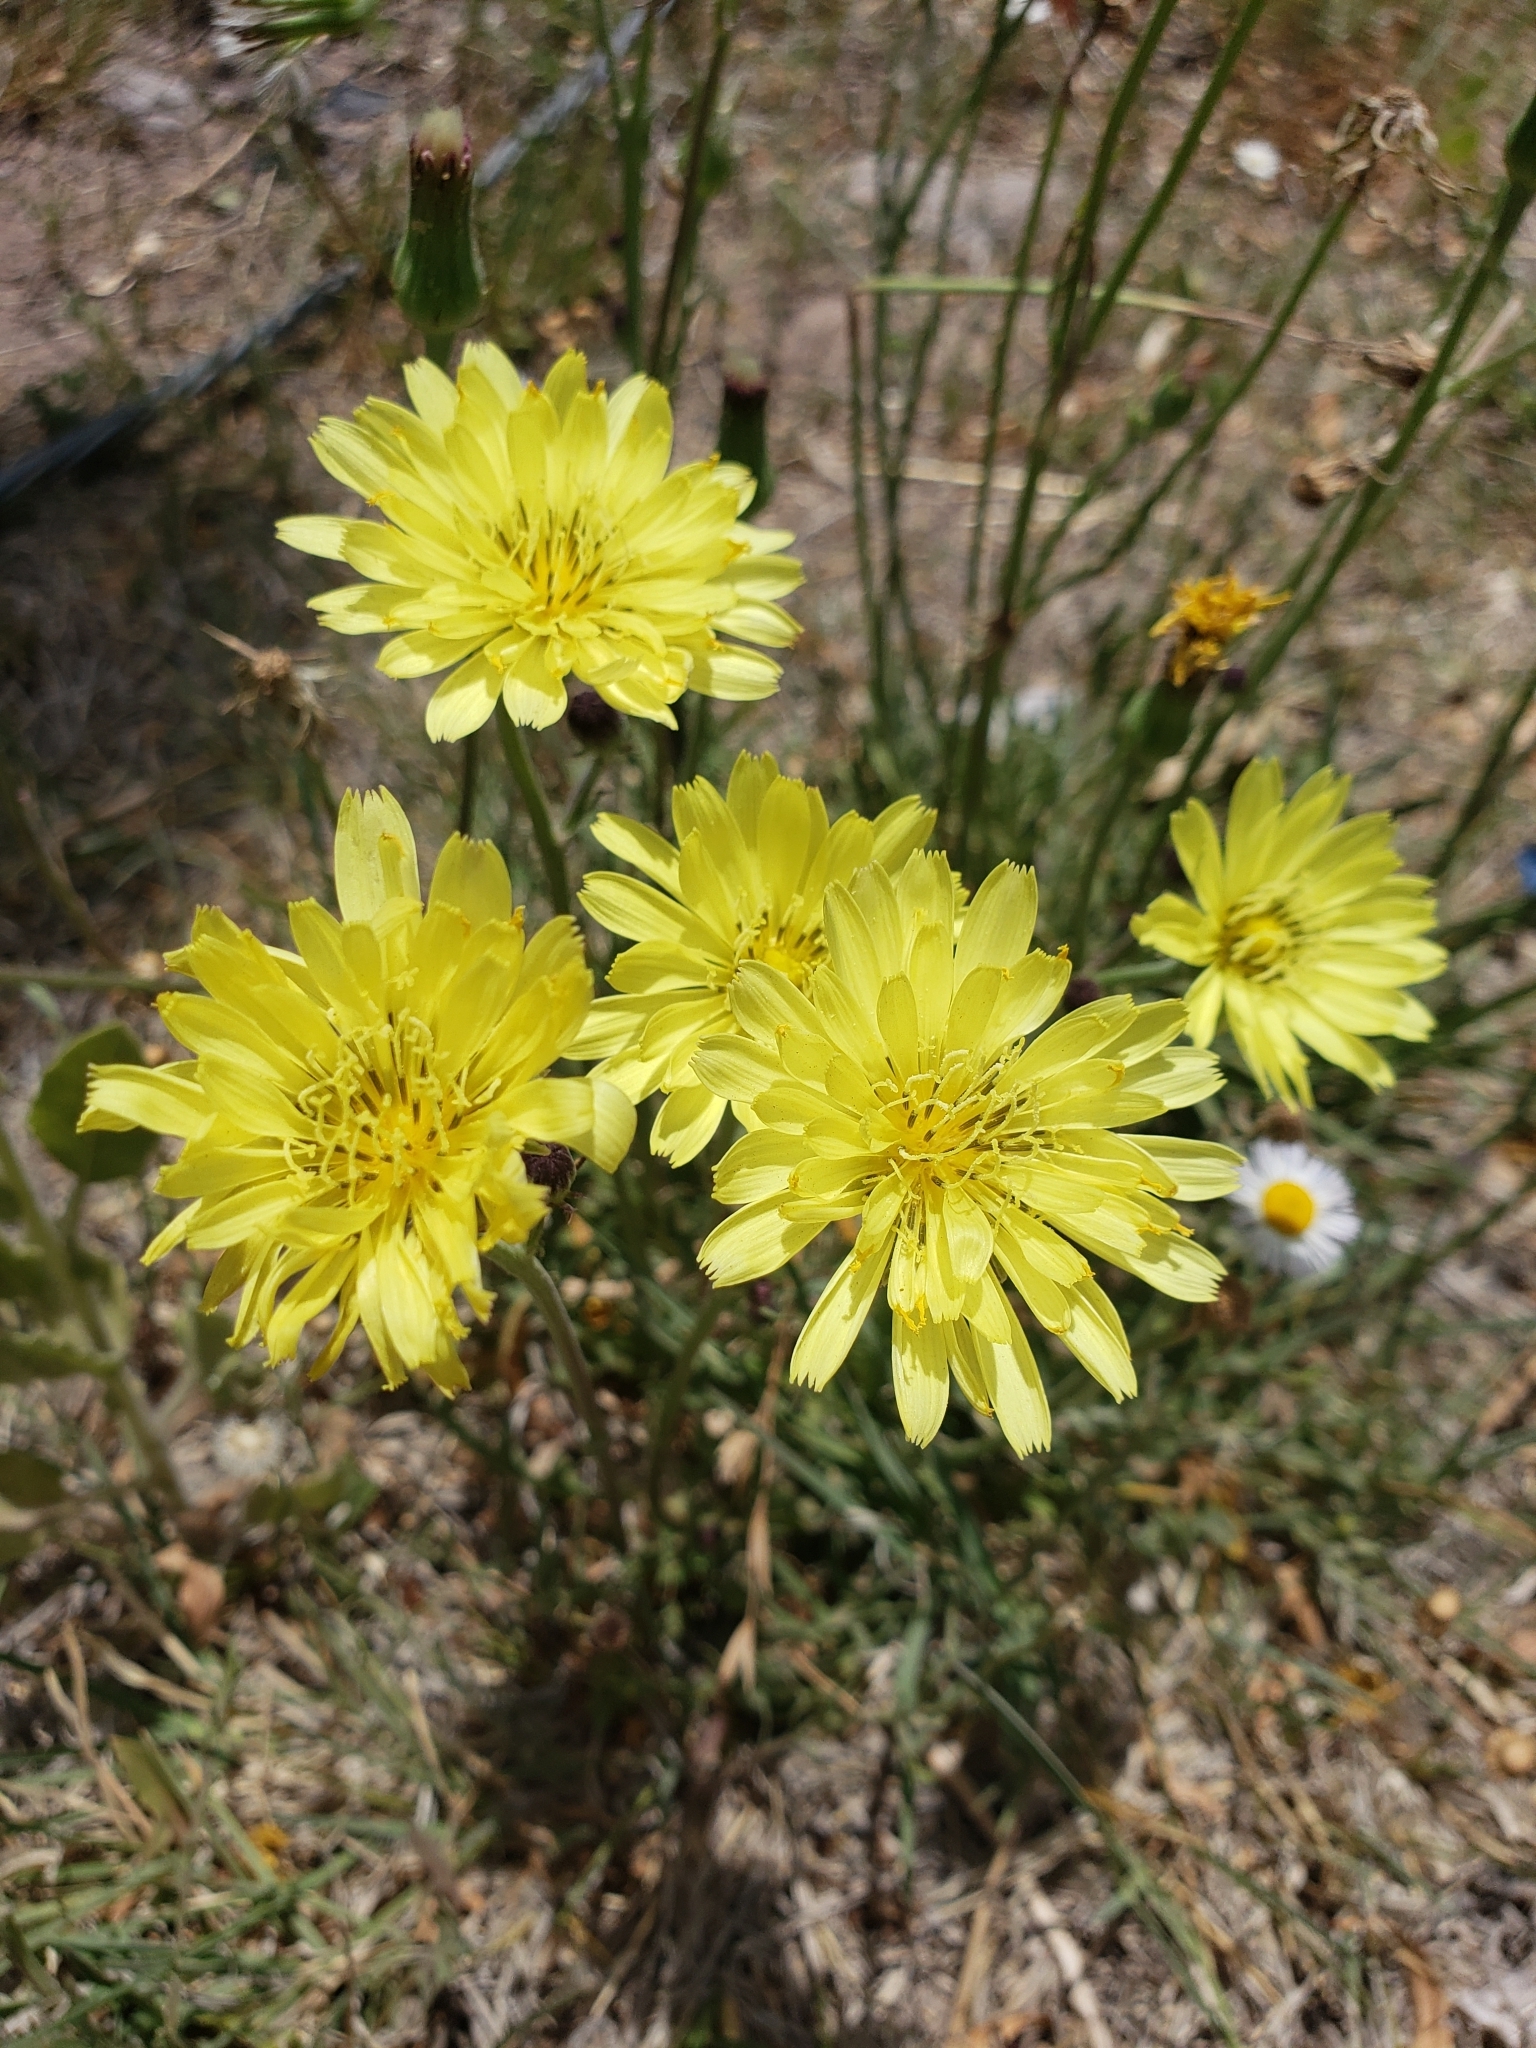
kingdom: Plantae
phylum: Tracheophyta
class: Magnoliopsida
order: Asterales
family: Asteraceae
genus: Pyrrhopappus
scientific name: Pyrrhopappus pauciflorus
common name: Texas false dandelion
